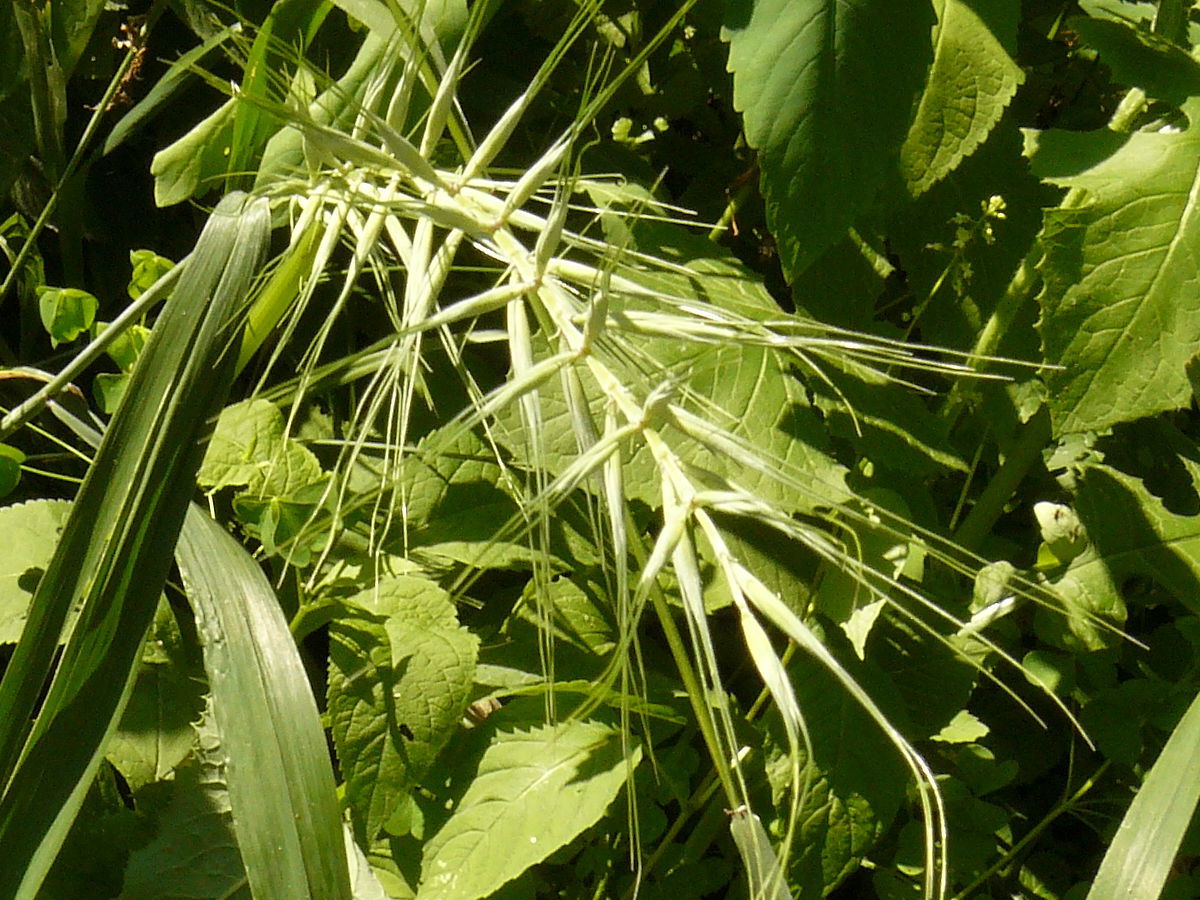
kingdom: Plantae
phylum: Tracheophyta
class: Liliopsida
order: Poales
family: Poaceae
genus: Elymus
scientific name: Elymus hystrix
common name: Bottlebrush grass
